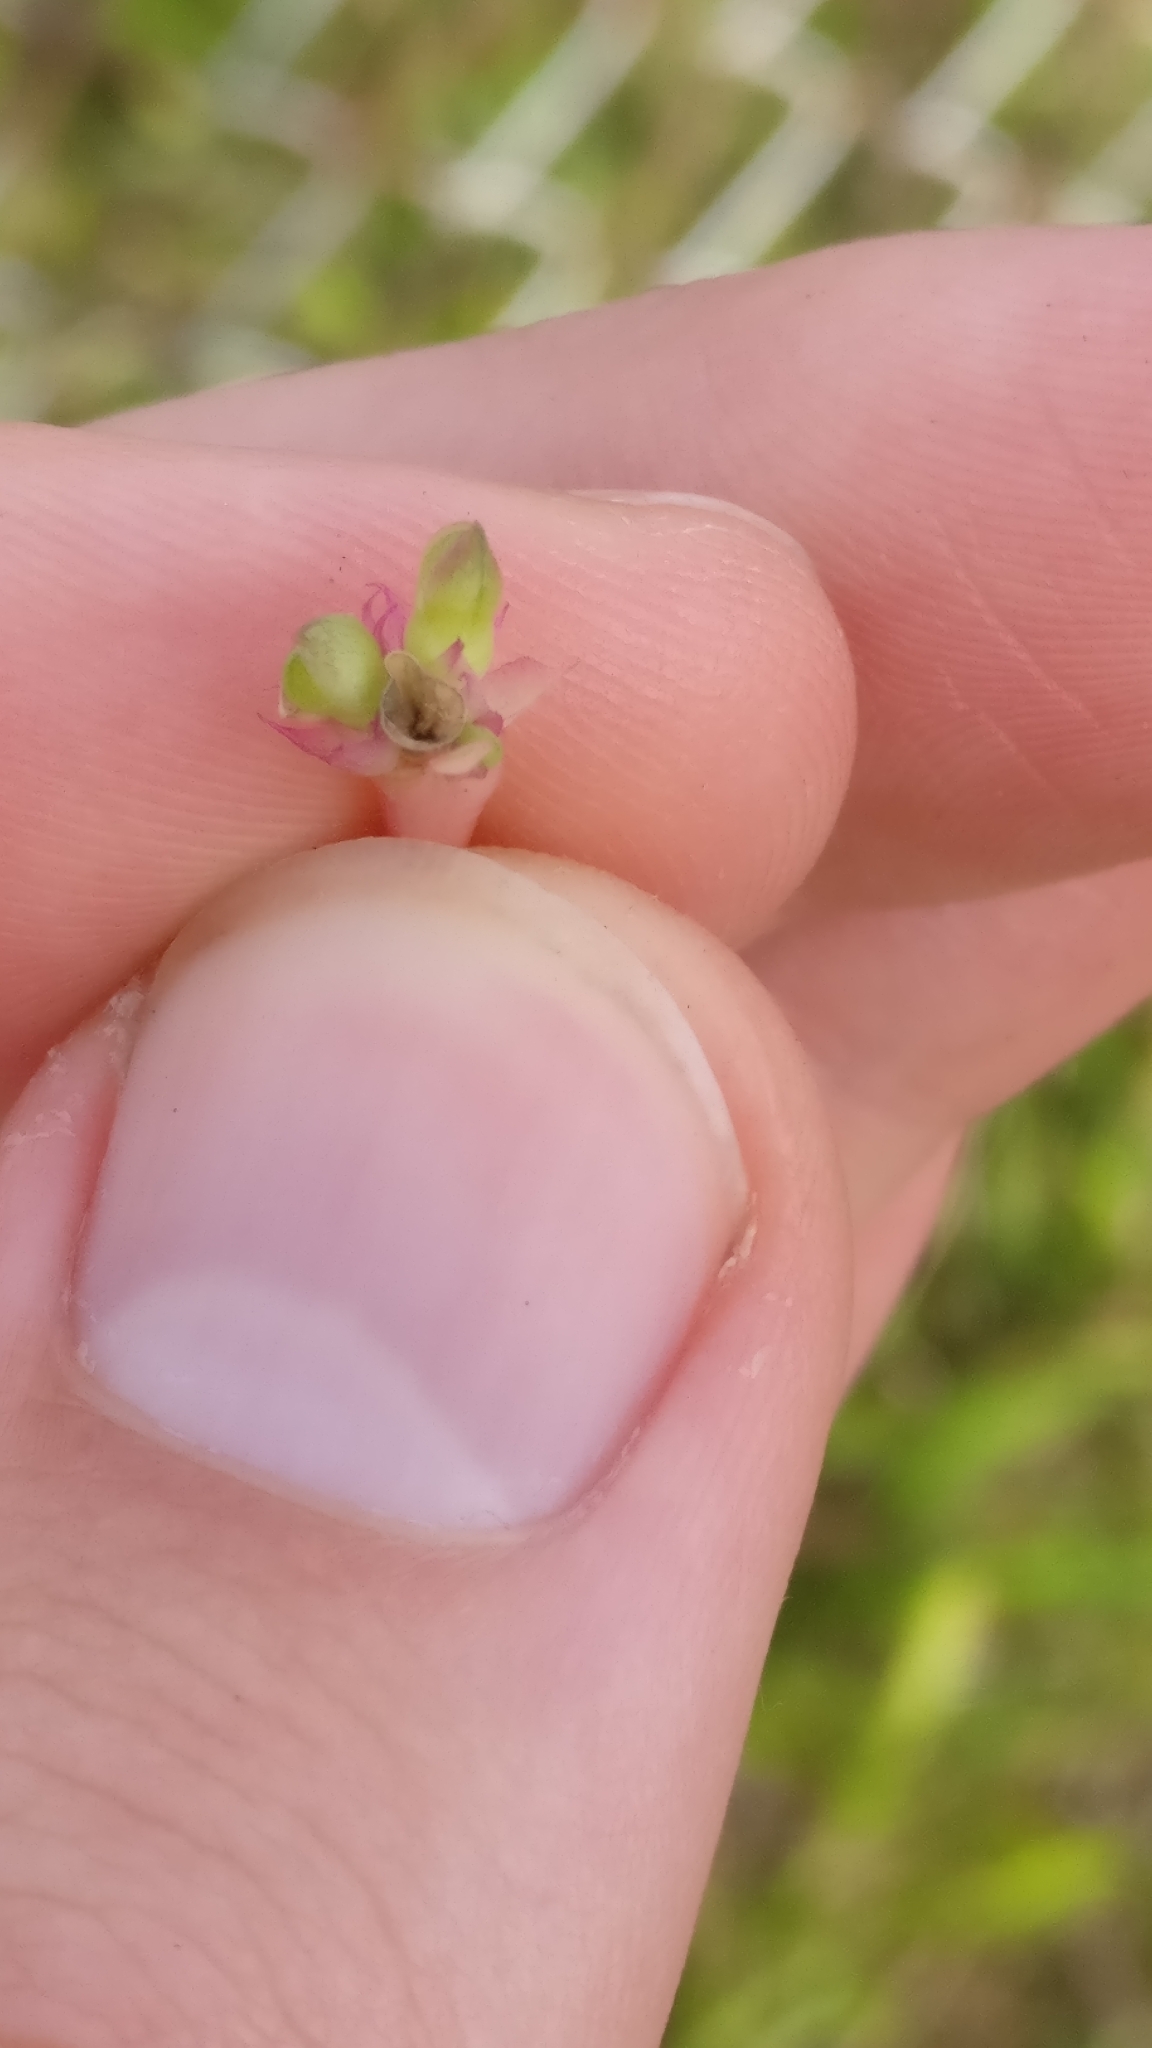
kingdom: Plantae
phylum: Tracheophyta
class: Magnoliopsida
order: Caryophyllales
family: Portulacaceae
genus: Portulaca
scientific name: Portulaca oleracea
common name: Common purslane
